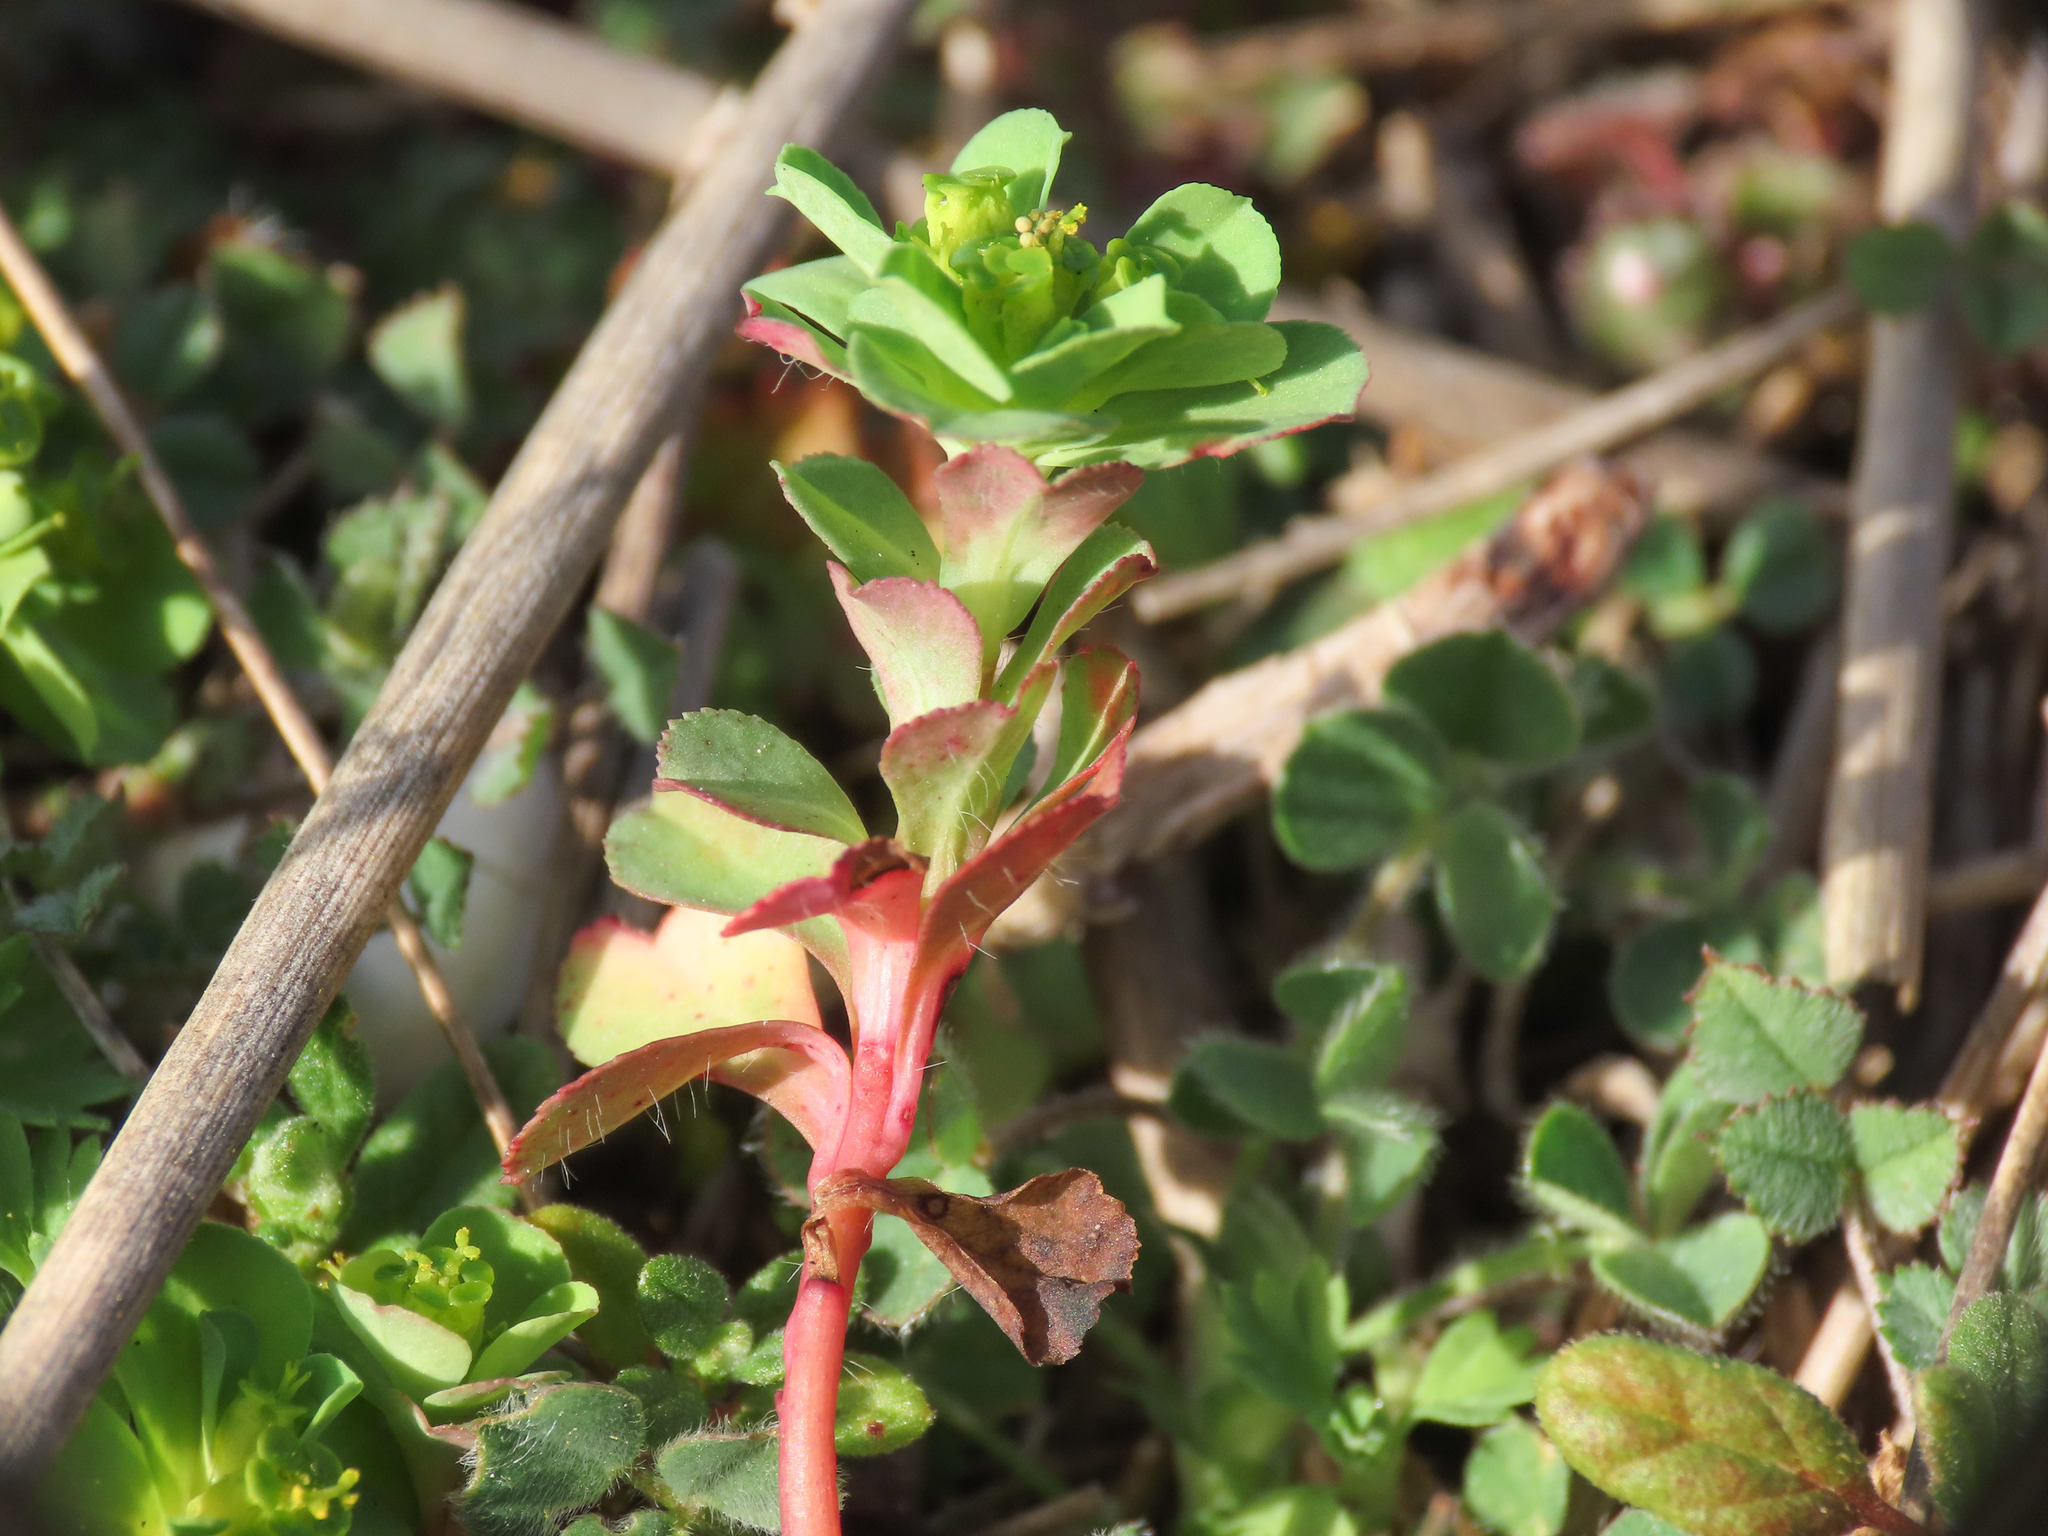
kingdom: Plantae
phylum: Tracheophyta
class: Magnoliopsida
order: Malpighiales
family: Euphorbiaceae
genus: Euphorbia
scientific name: Euphorbia helioscopia
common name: Sun spurge
